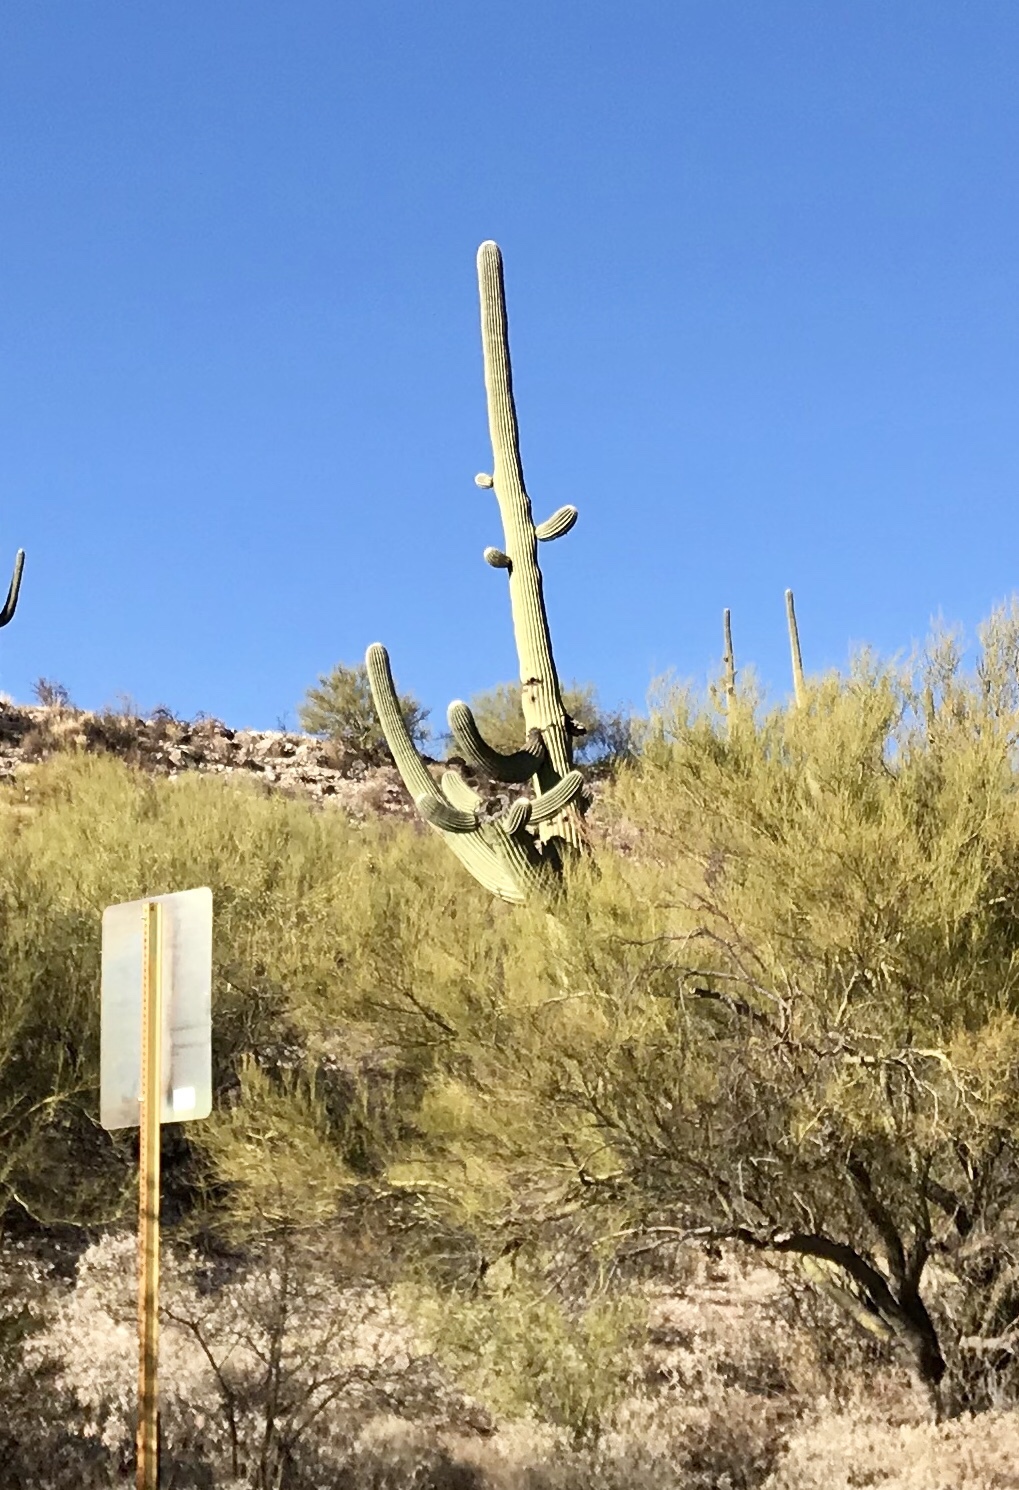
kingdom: Plantae
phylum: Tracheophyta
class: Magnoliopsida
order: Caryophyllales
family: Cactaceae
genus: Carnegiea
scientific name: Carnegiea gigantea
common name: Saguaro
